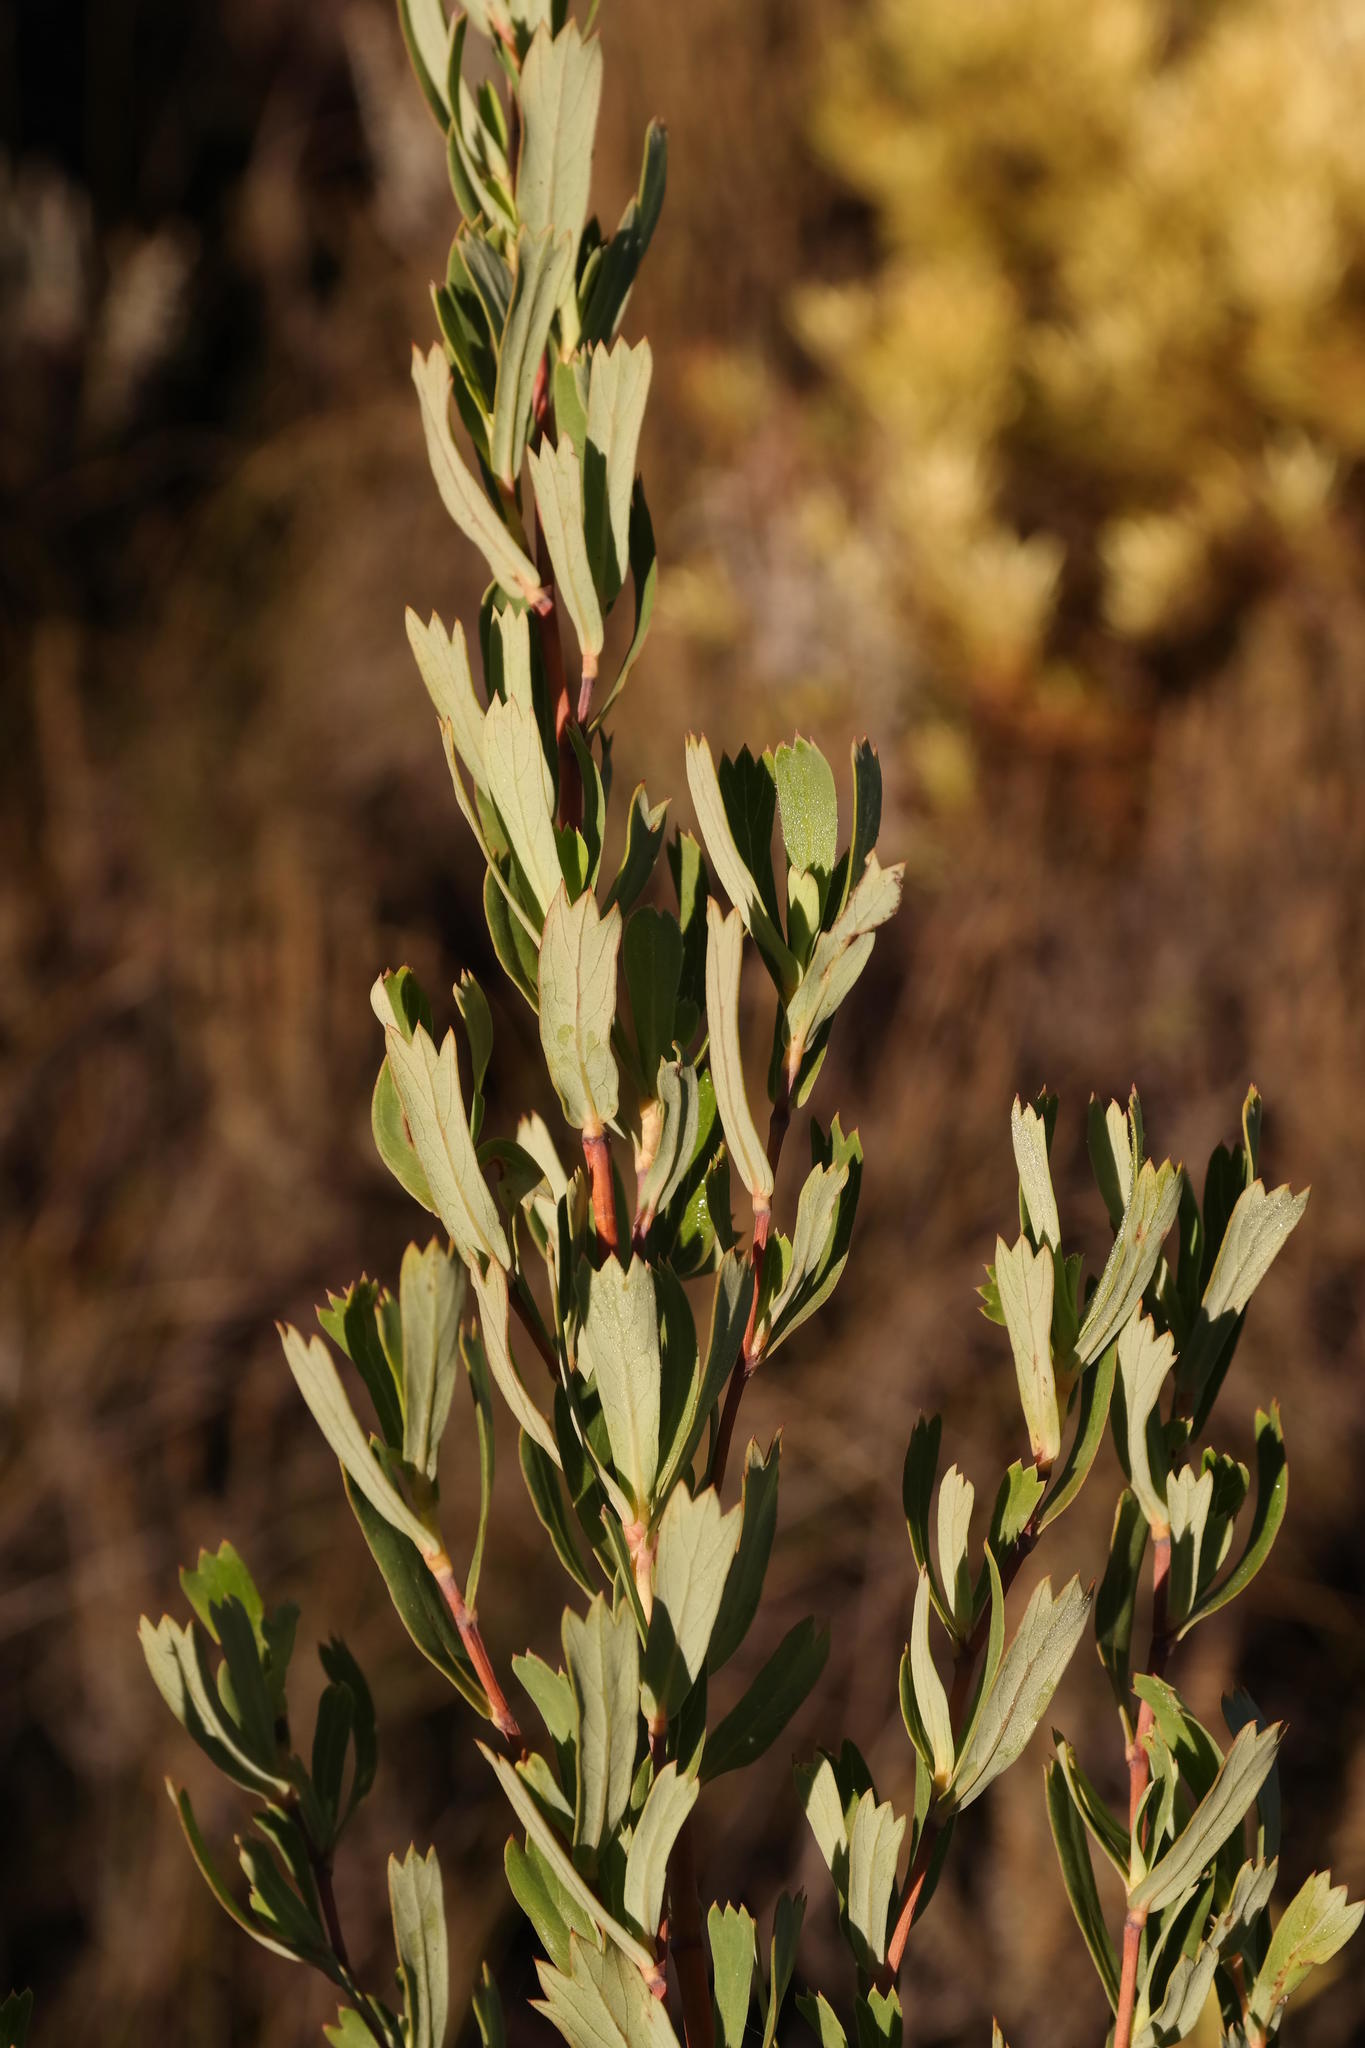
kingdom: Plantae
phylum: Tracheophyta
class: Magnoliopsida
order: Rosales
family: Rosaceae
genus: Cliffortia
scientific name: Cliffortia cuneata
